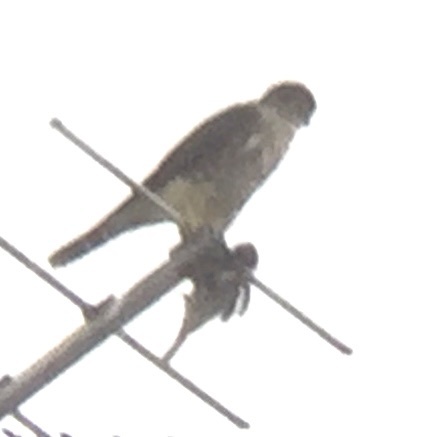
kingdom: Animalia
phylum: Chordata
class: Aves
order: Falconiformes
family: Falconidae
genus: Falco
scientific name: Falco columbarius
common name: Merlin
